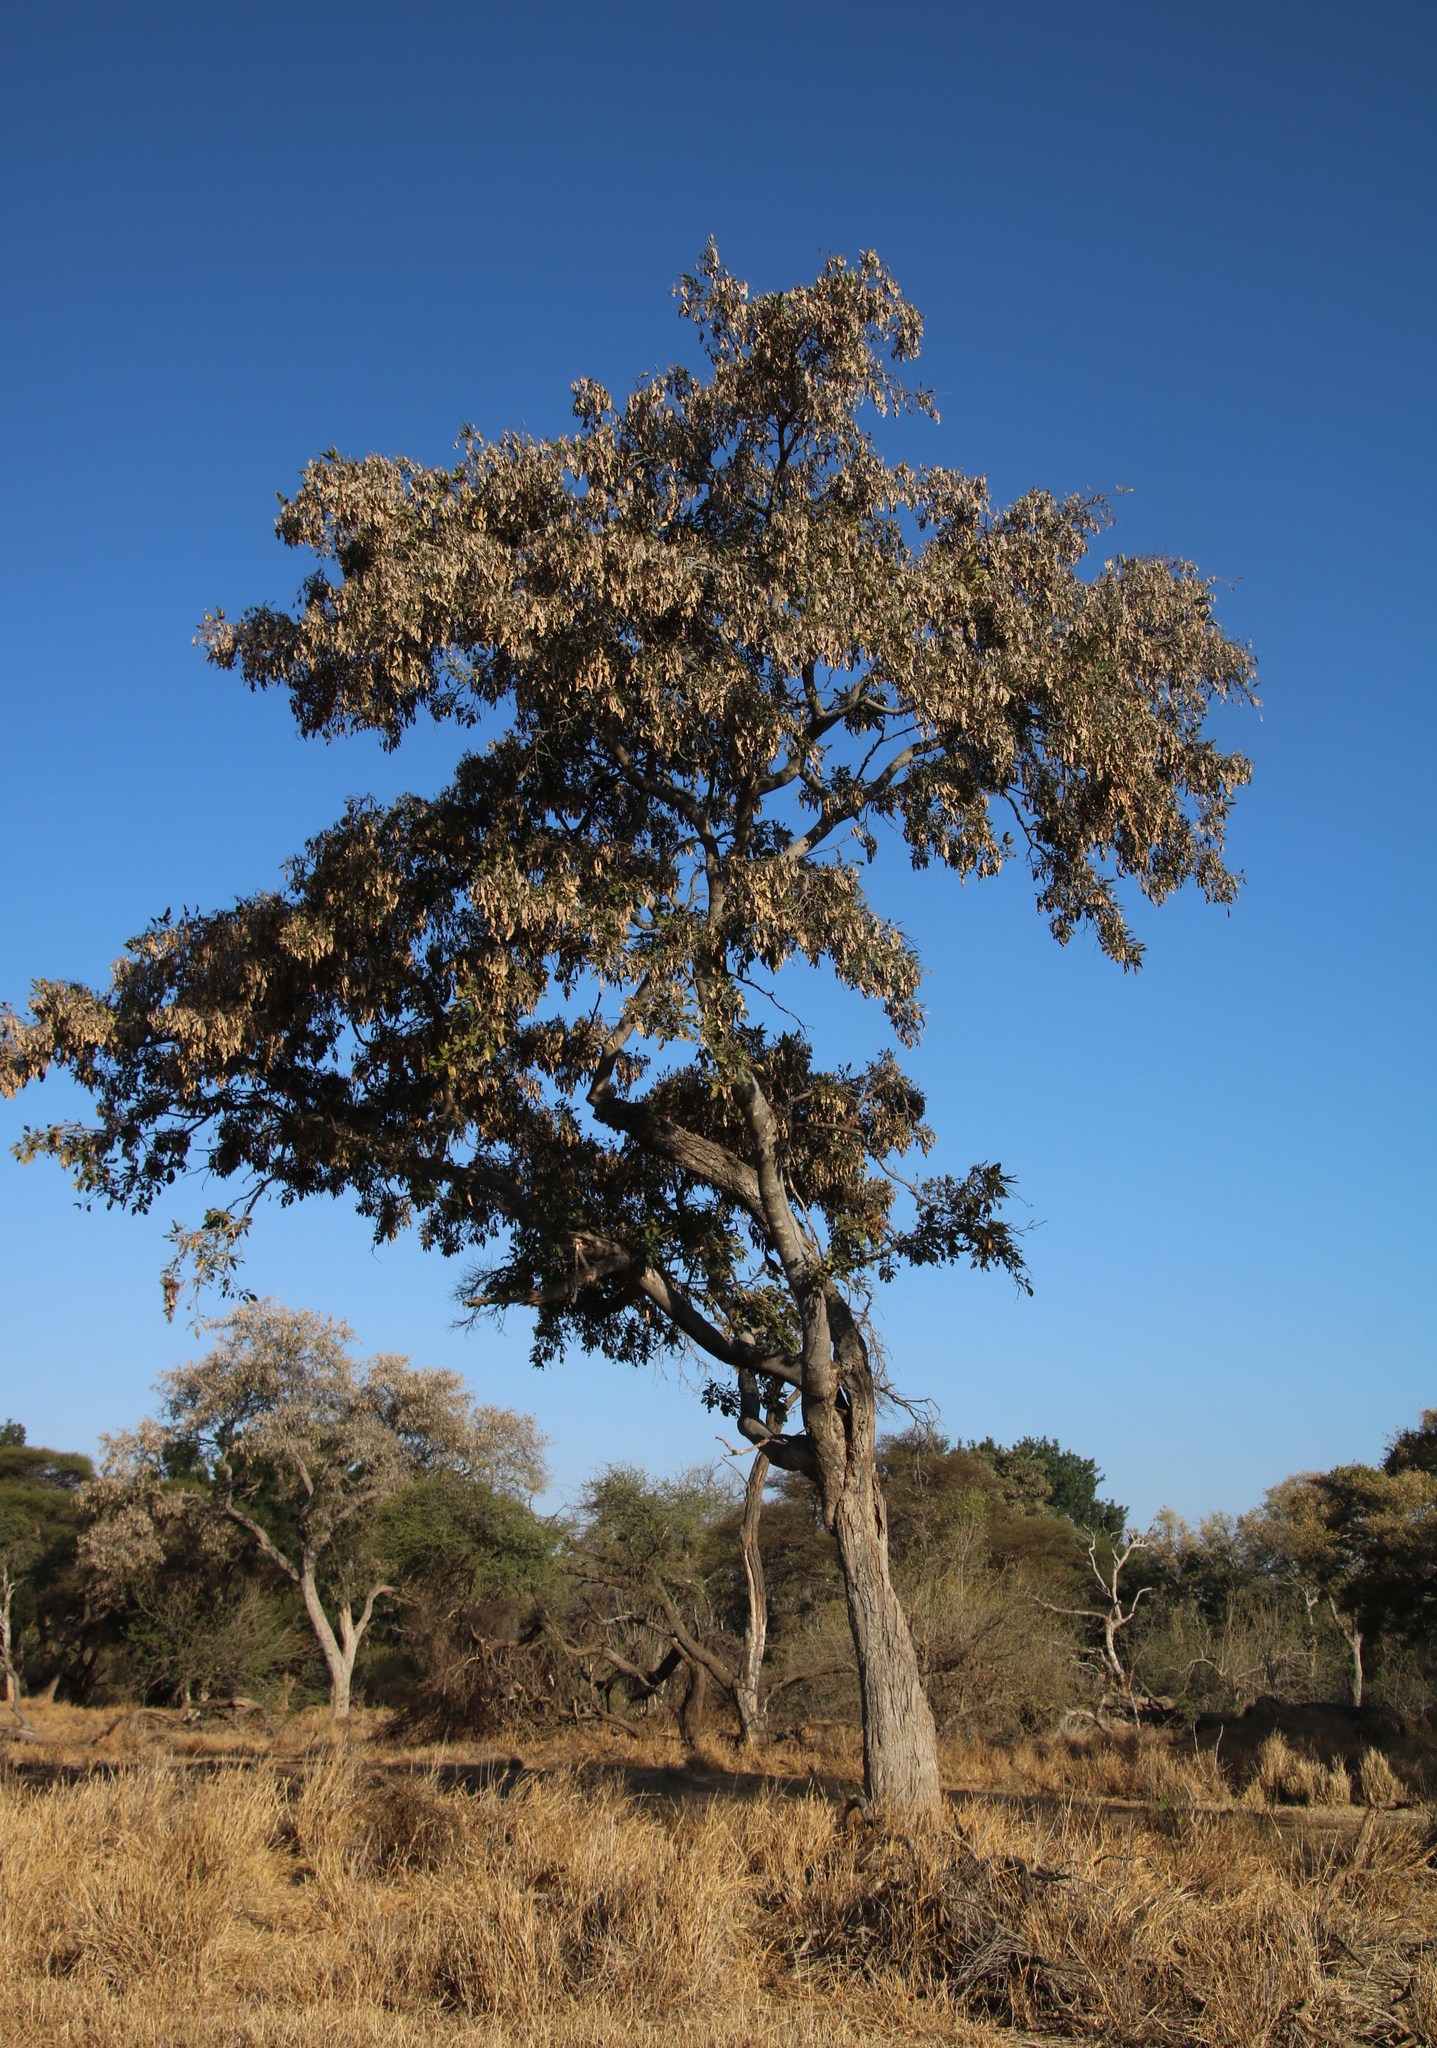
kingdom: Plantae
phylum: Tracheophyta
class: Magnoliopsida
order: Fabales
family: Fabaceae
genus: Philenoptera
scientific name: Philenoptera violacea
